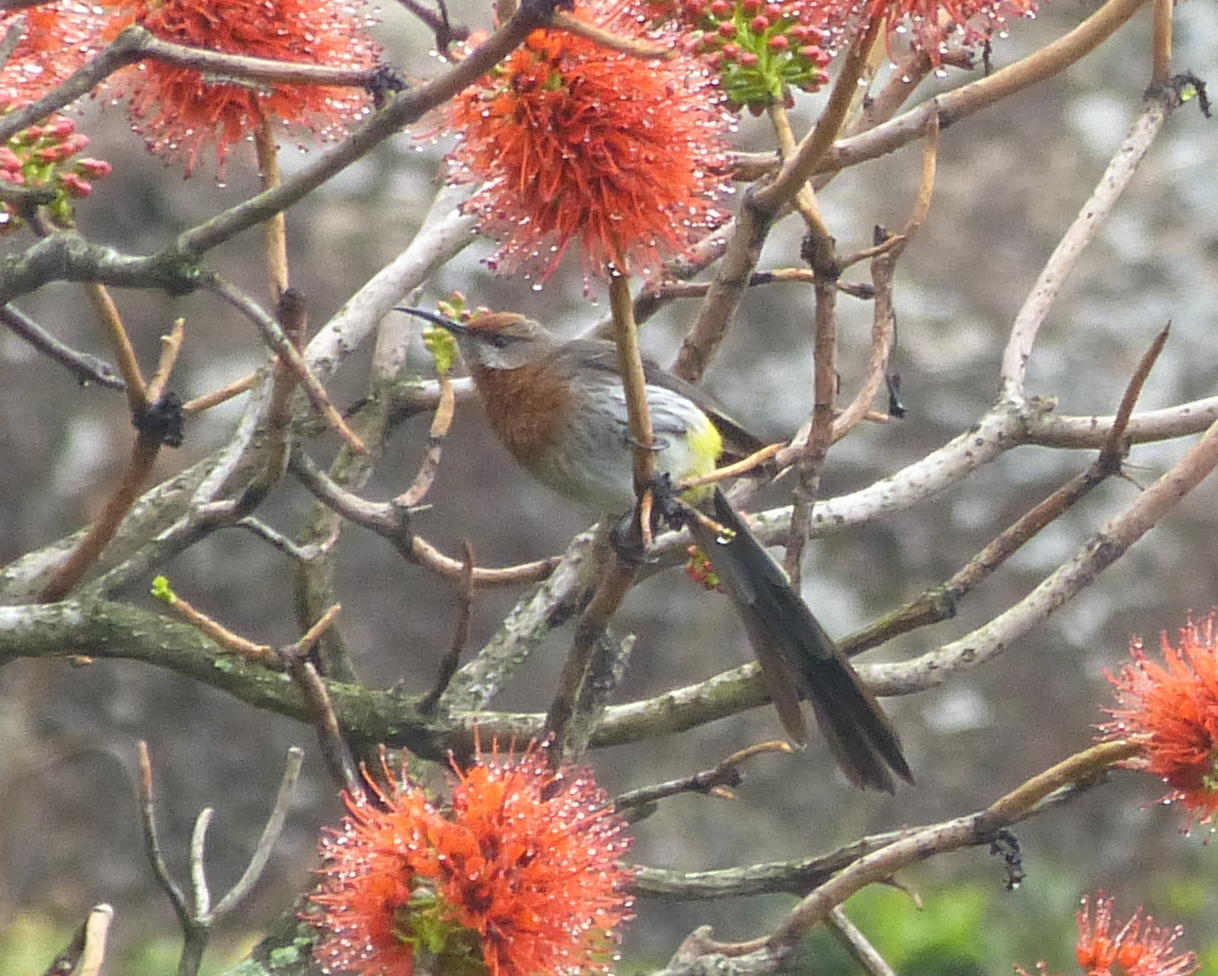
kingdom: Animalia
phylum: Chordata
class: Aves
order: Passeriformes
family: Promeropidae
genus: Promerops
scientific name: Promerops gurneyi
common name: Gurney's sugarbird
